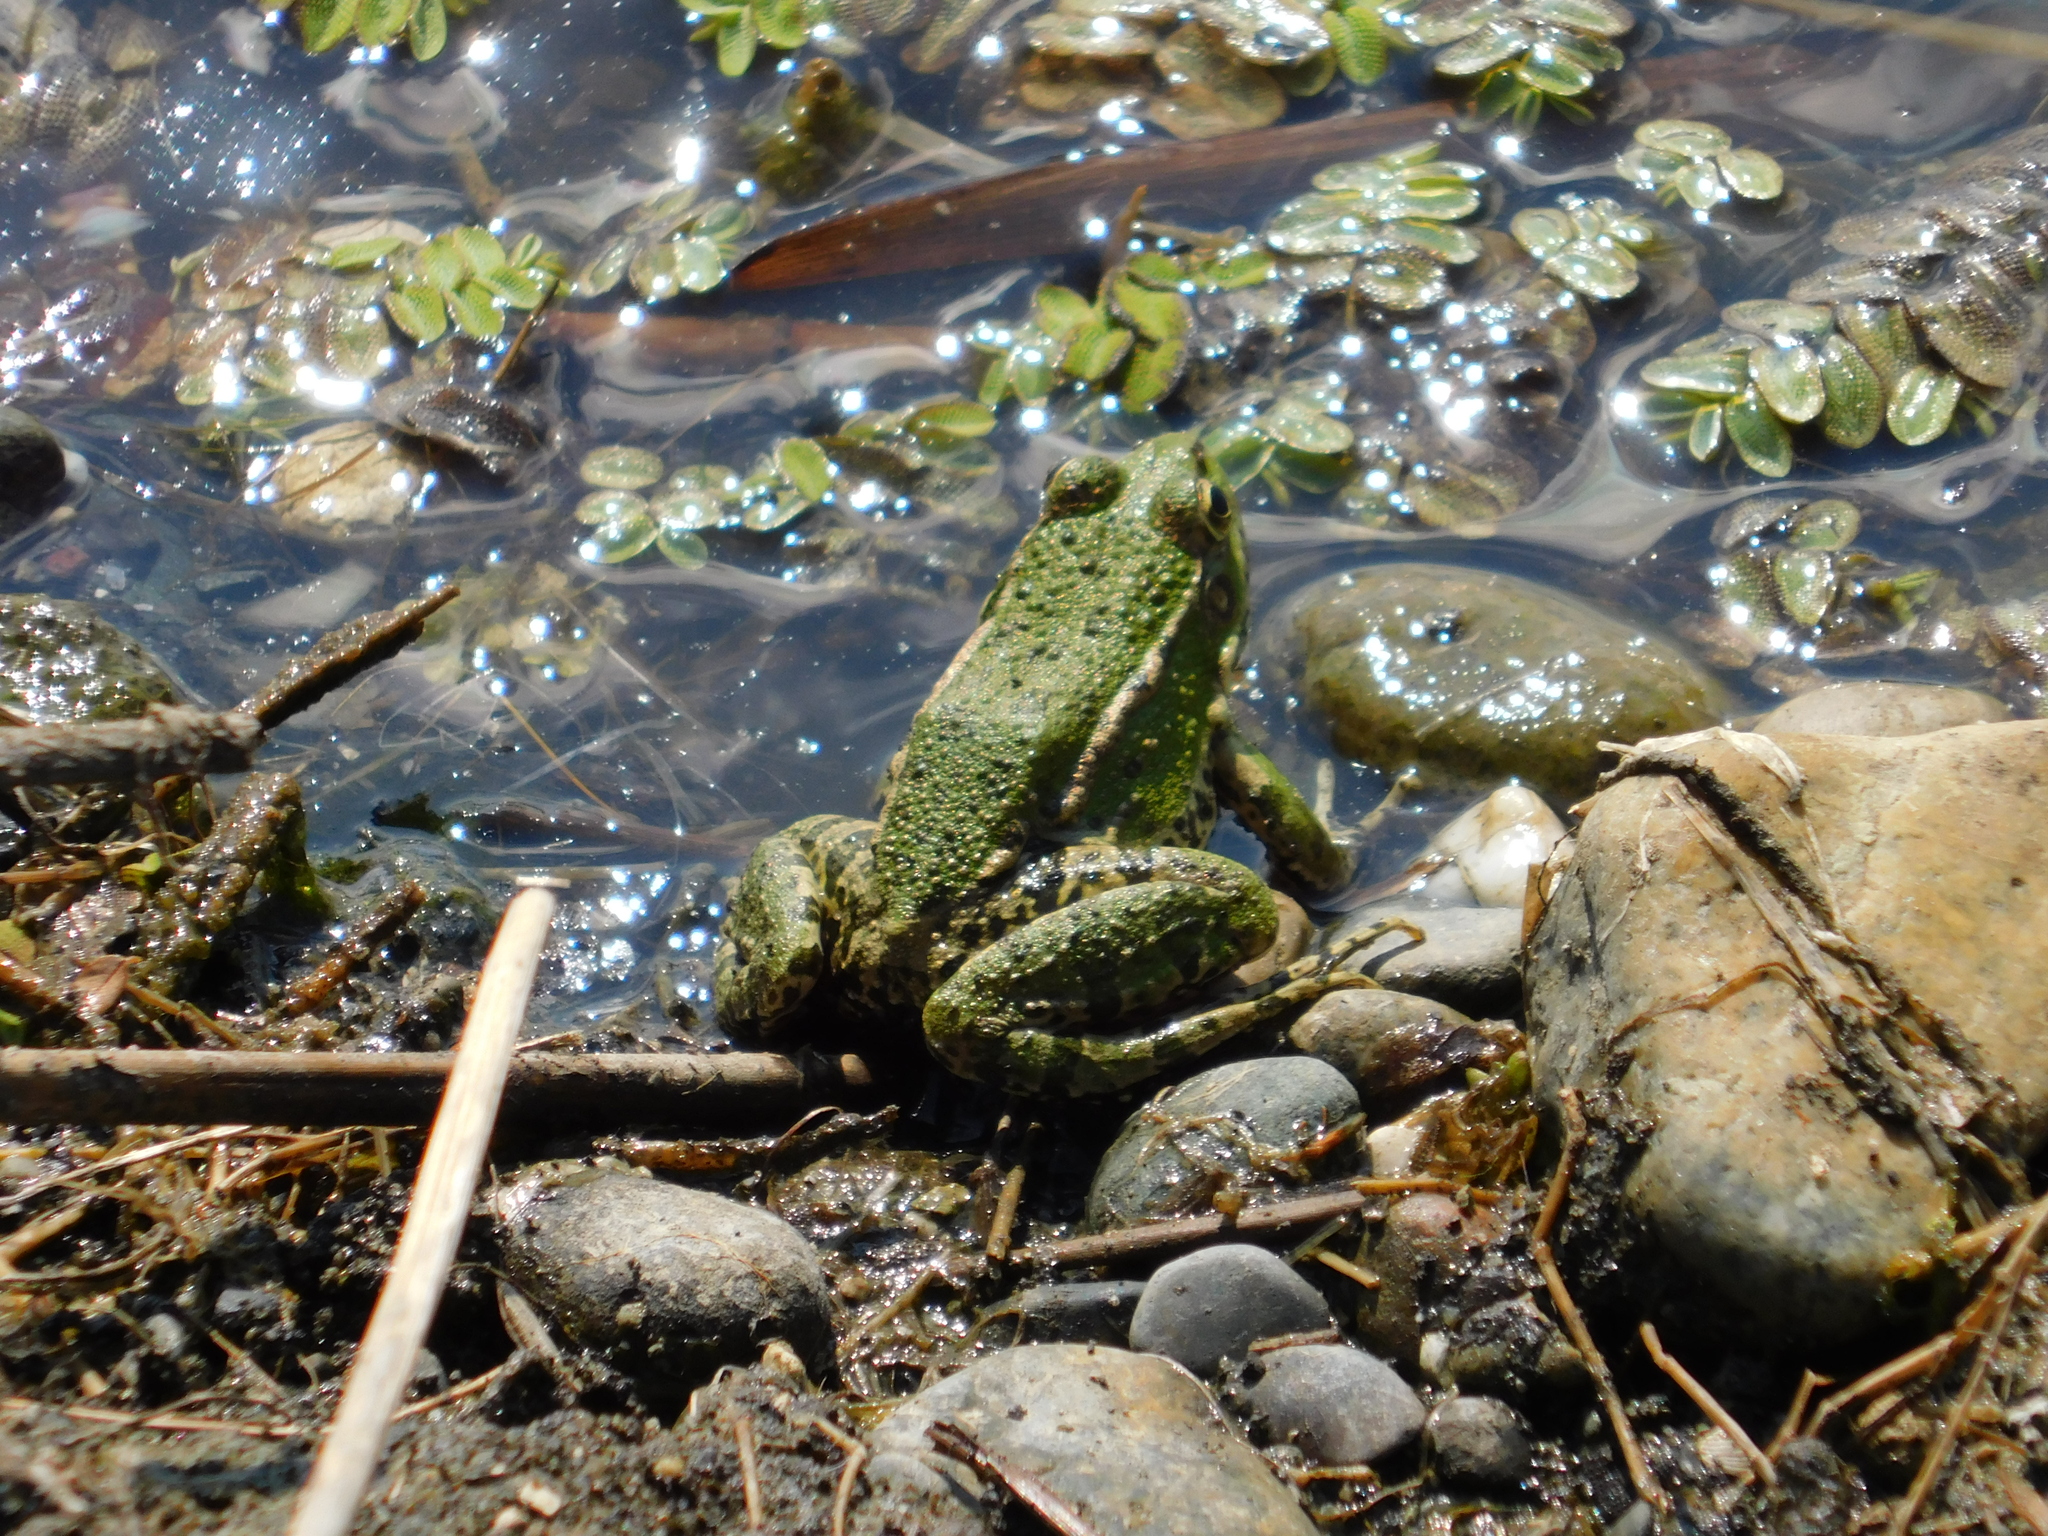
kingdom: Animalia
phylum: Chordata
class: Amphibia
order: Anura
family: Ranidae
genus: Pelophylax
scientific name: Pelophylax ridibundus
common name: Marsh frog
